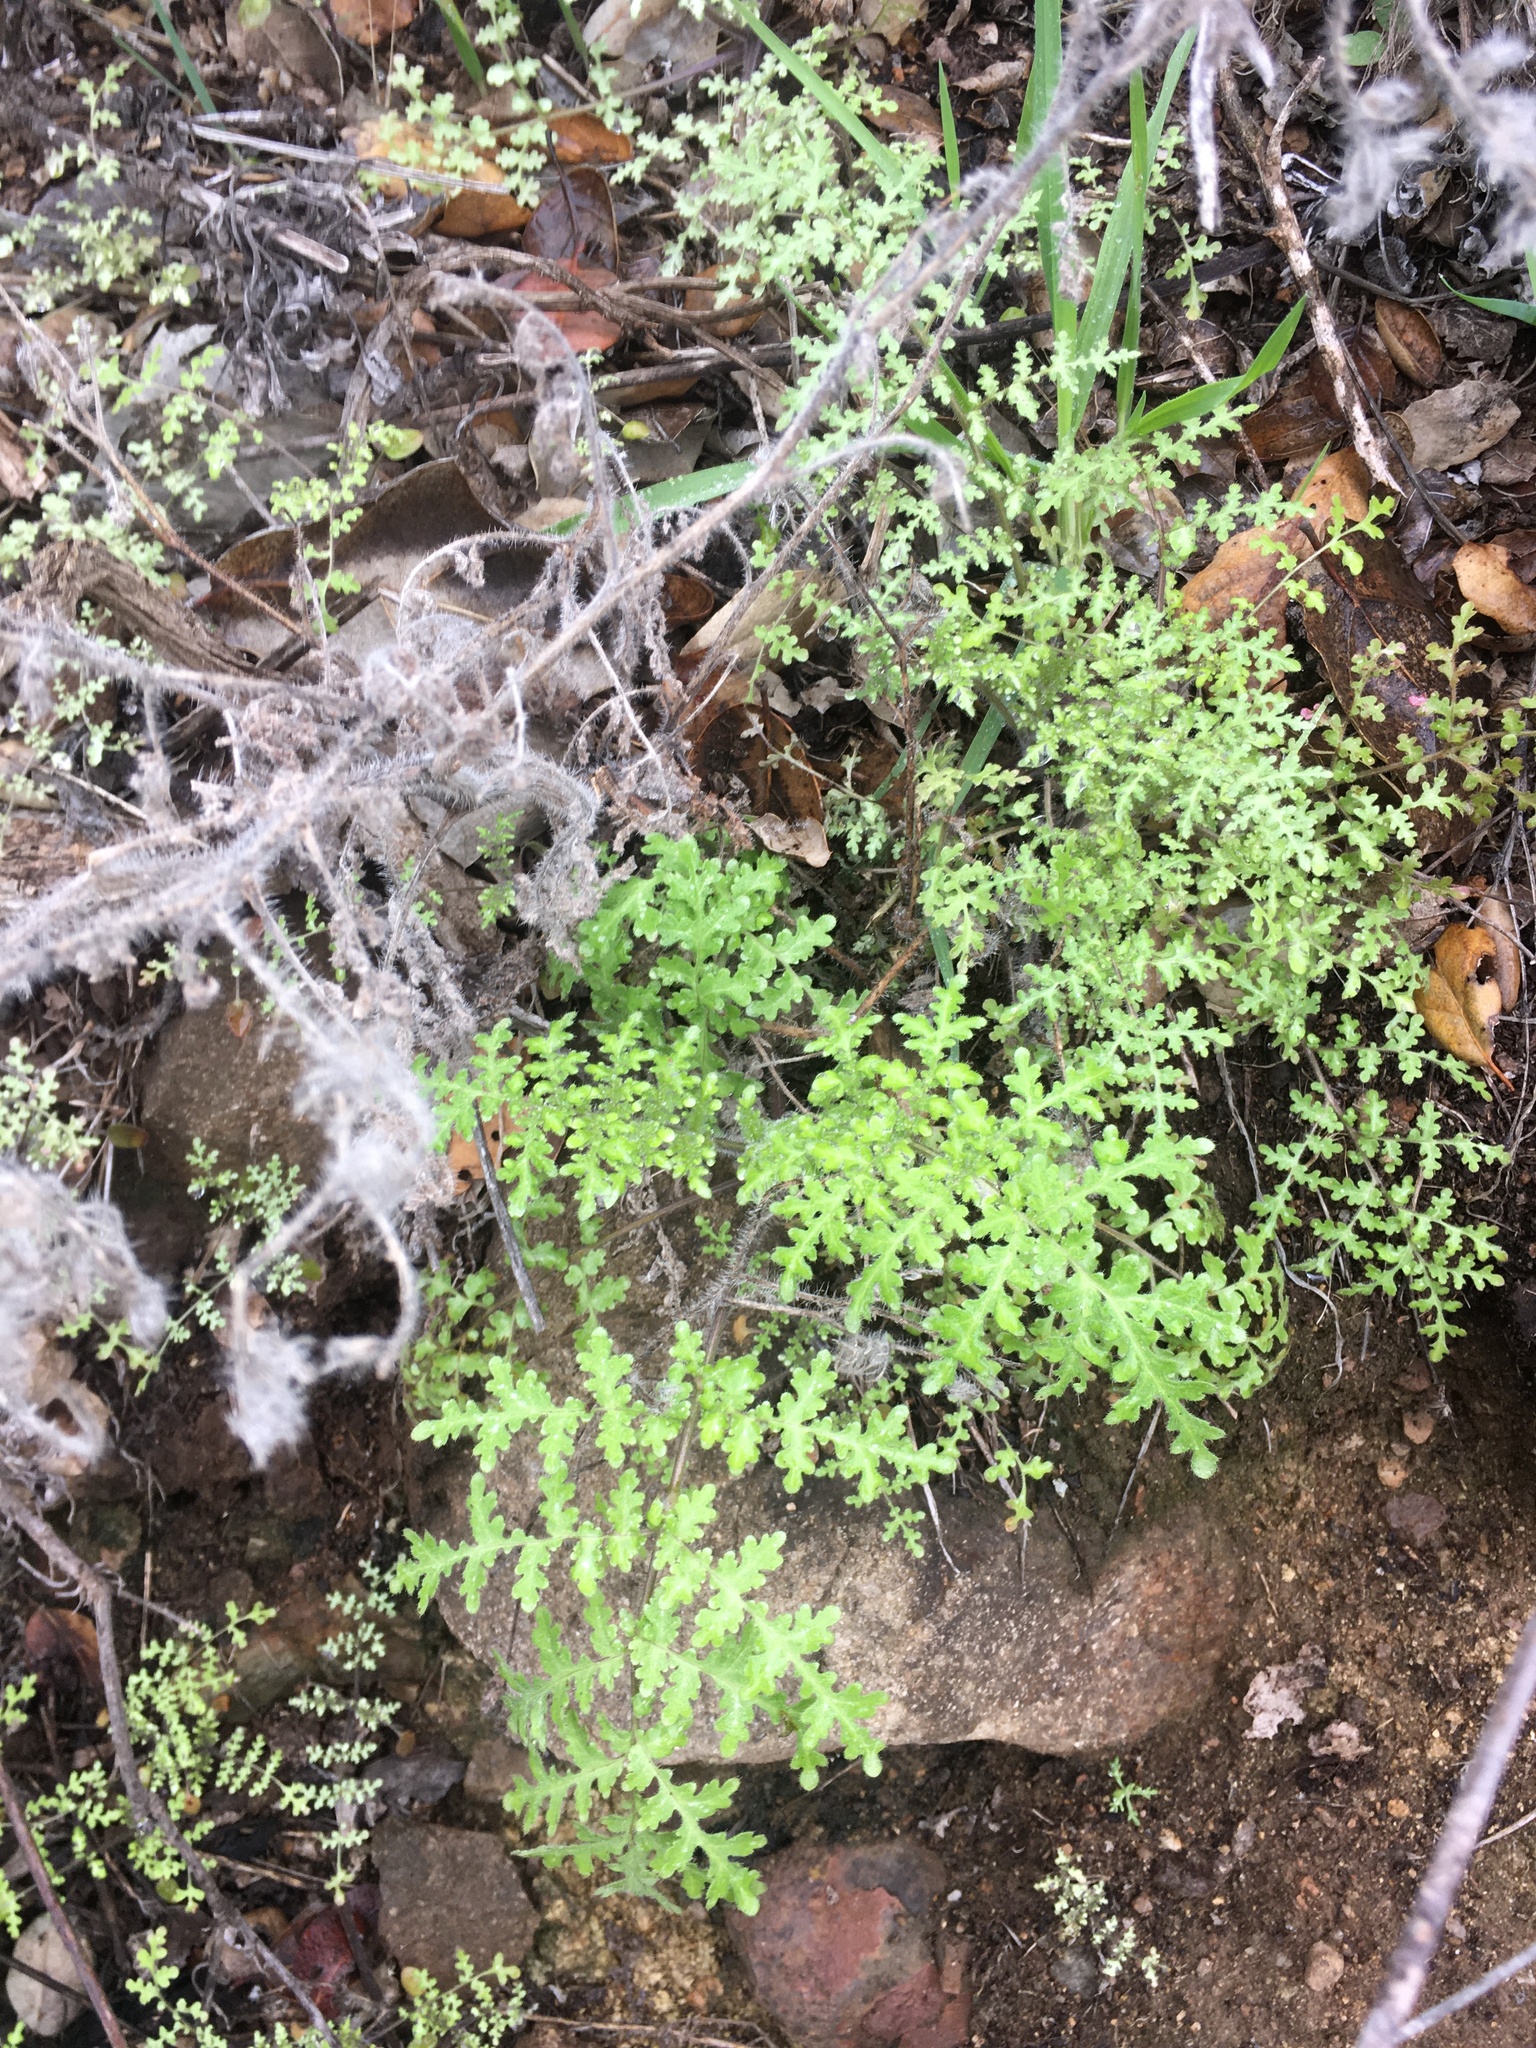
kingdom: Plantae
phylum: Tracheophyta
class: Magnoliopsida
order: Boraginales
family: Hydrophyllaceae
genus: Eucrypta
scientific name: Eucrypta chrysanthemifolia
